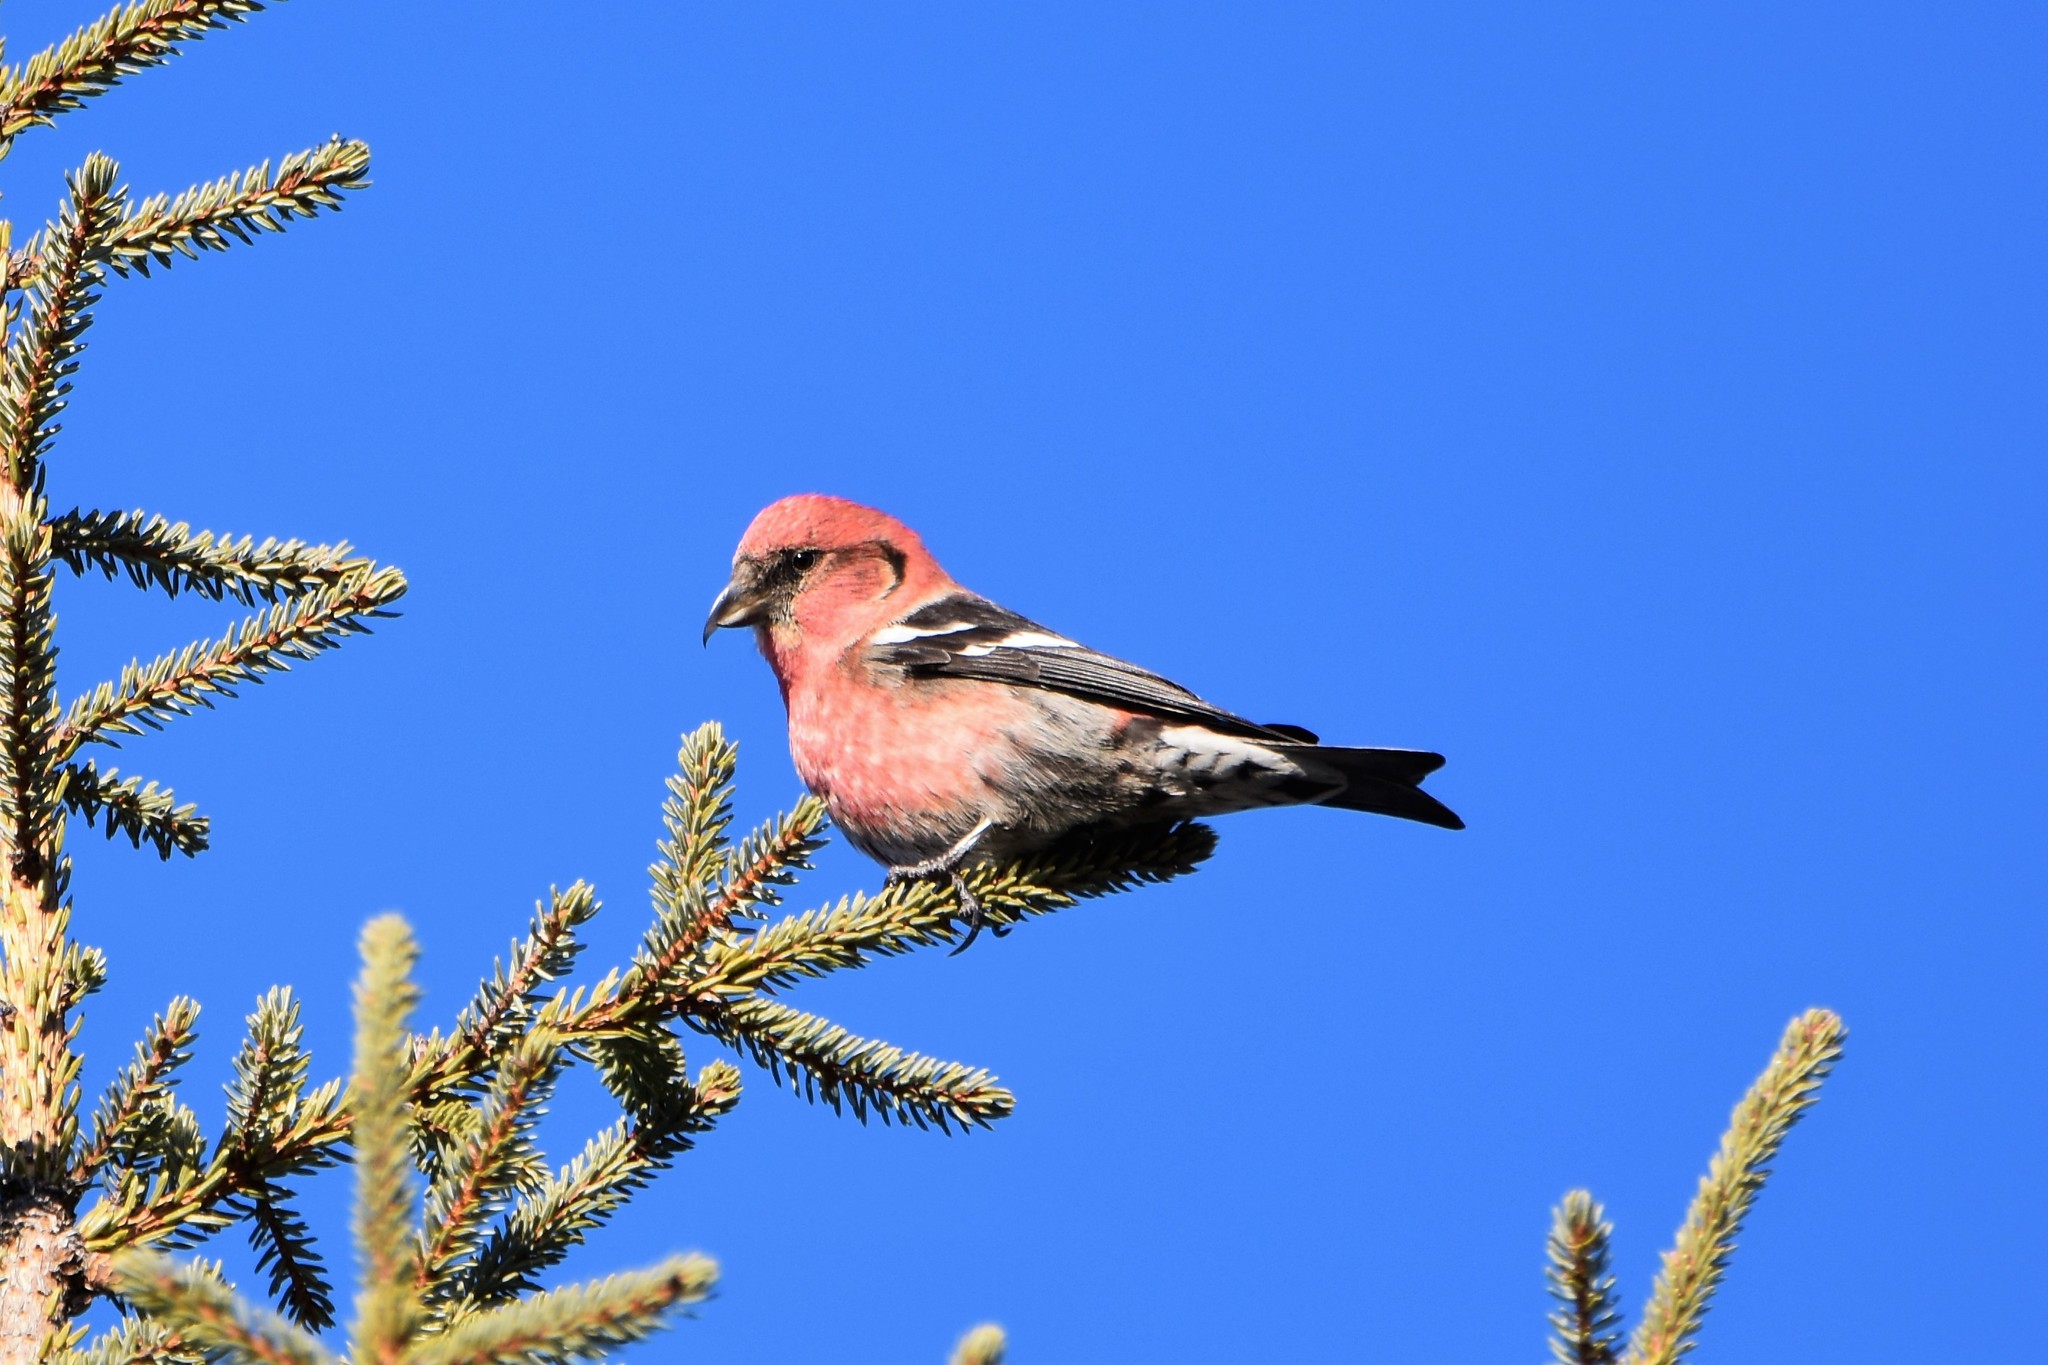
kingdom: Animalia
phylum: Chordata
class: Aves
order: Passeriformes
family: Fringillidae
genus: Loxia
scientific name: Loxia leucoptera
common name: Two-barred crossbill
